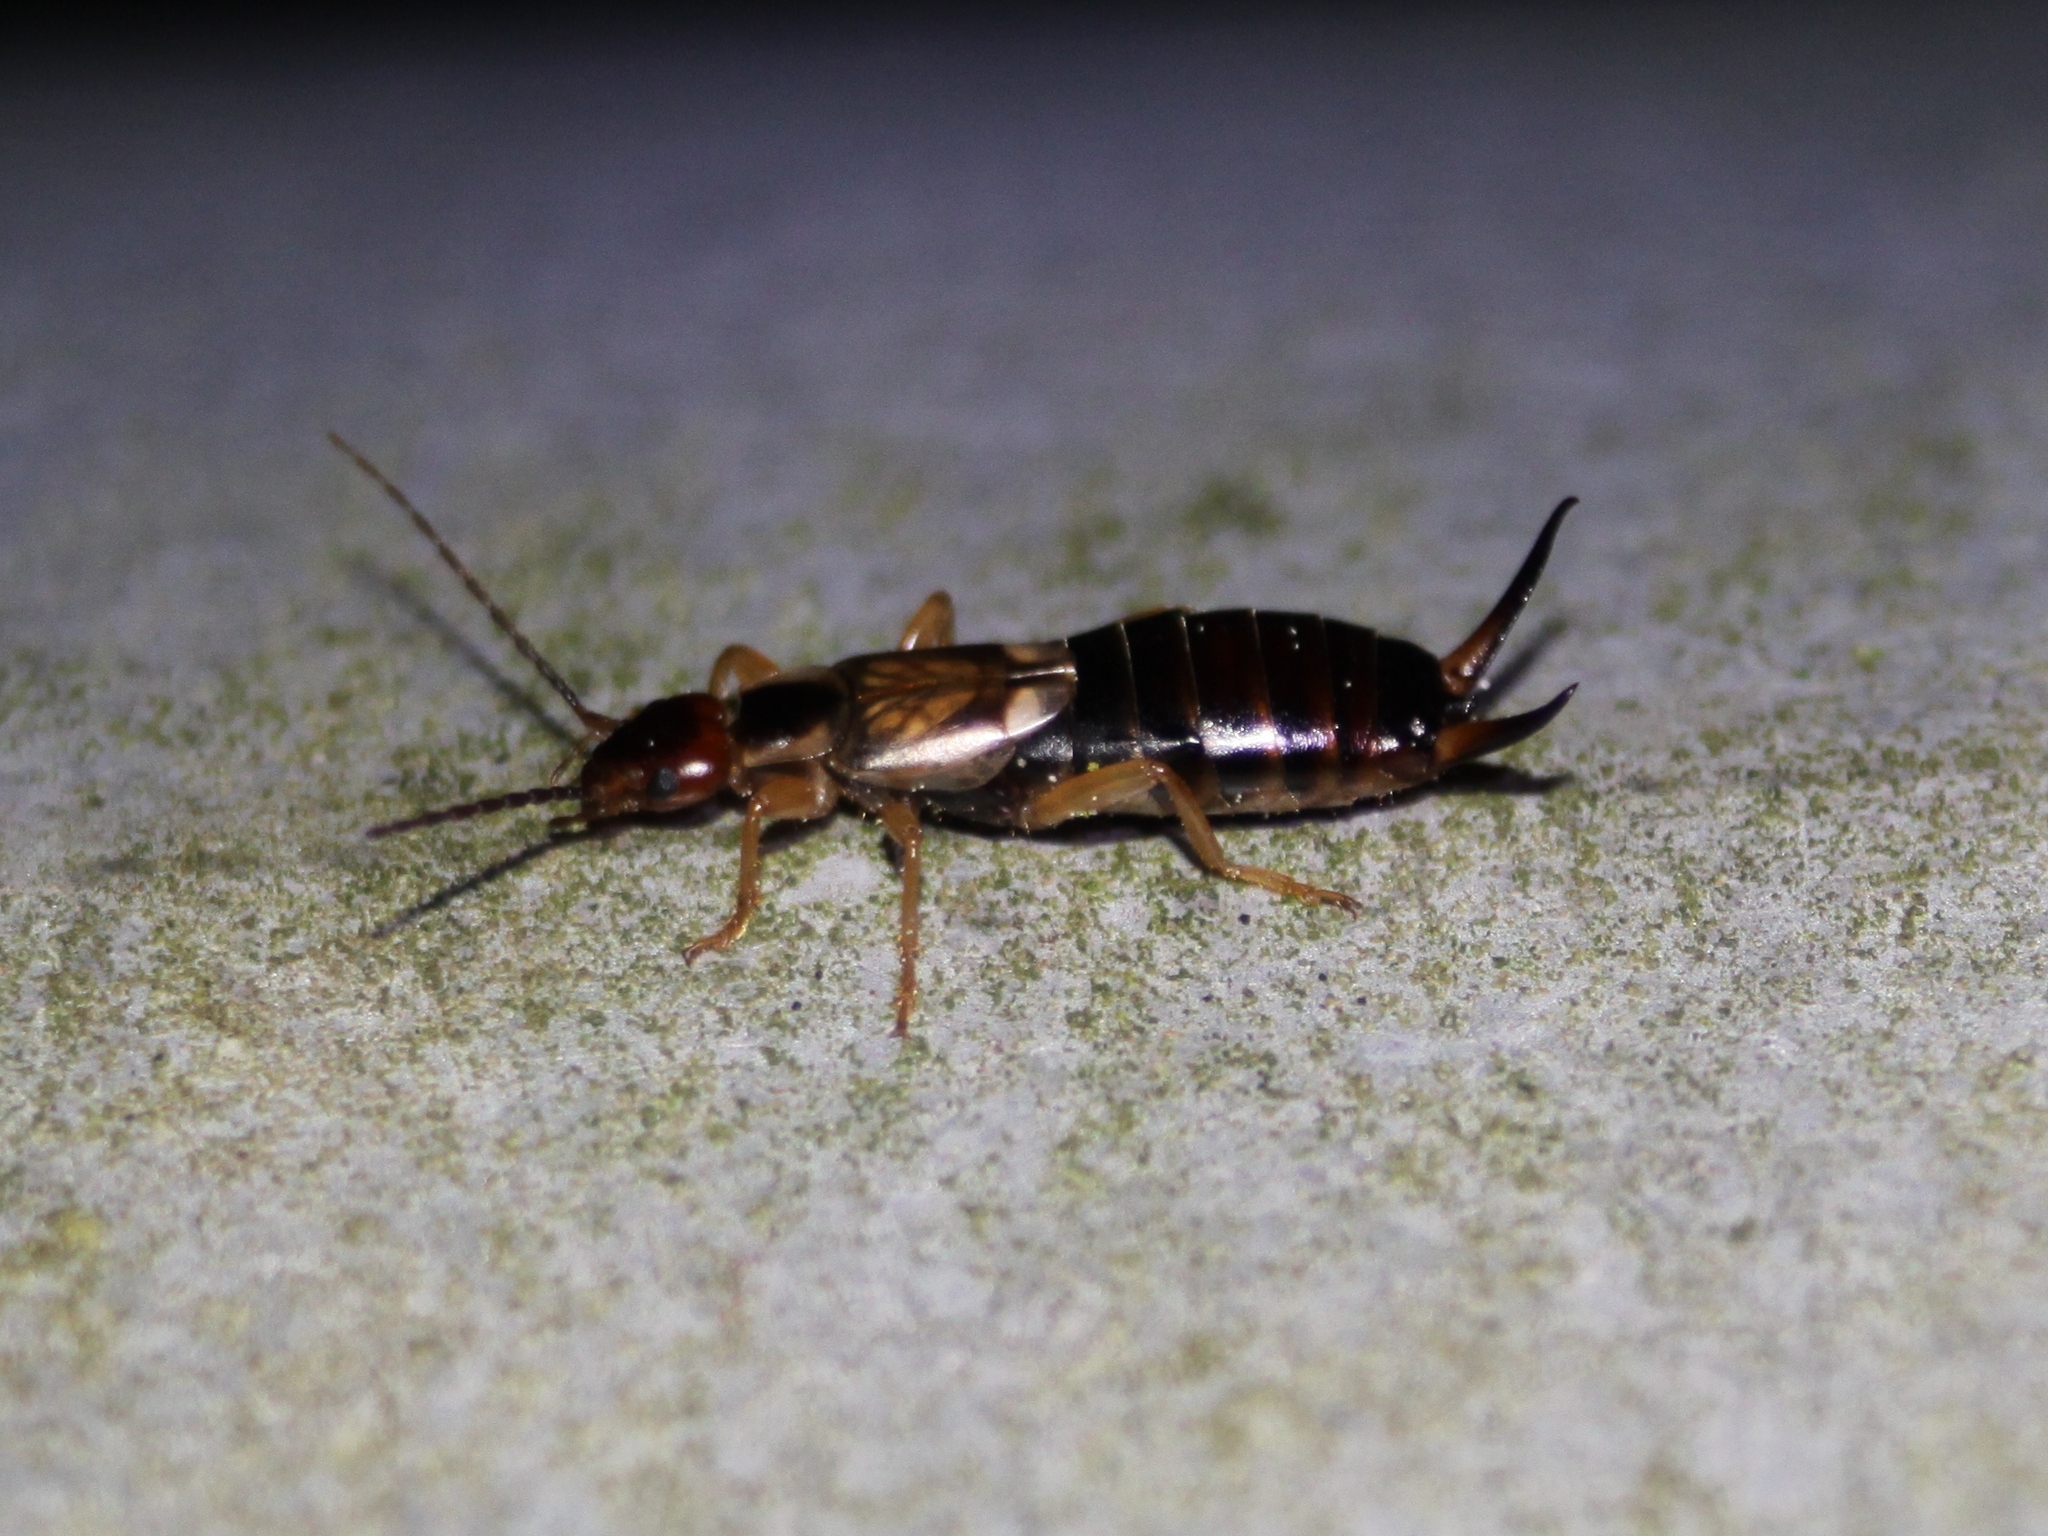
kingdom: Animalia
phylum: Arthropoda
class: Insecta
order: Dermaptera
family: Forficulidae
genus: Forficula
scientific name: Forficula
